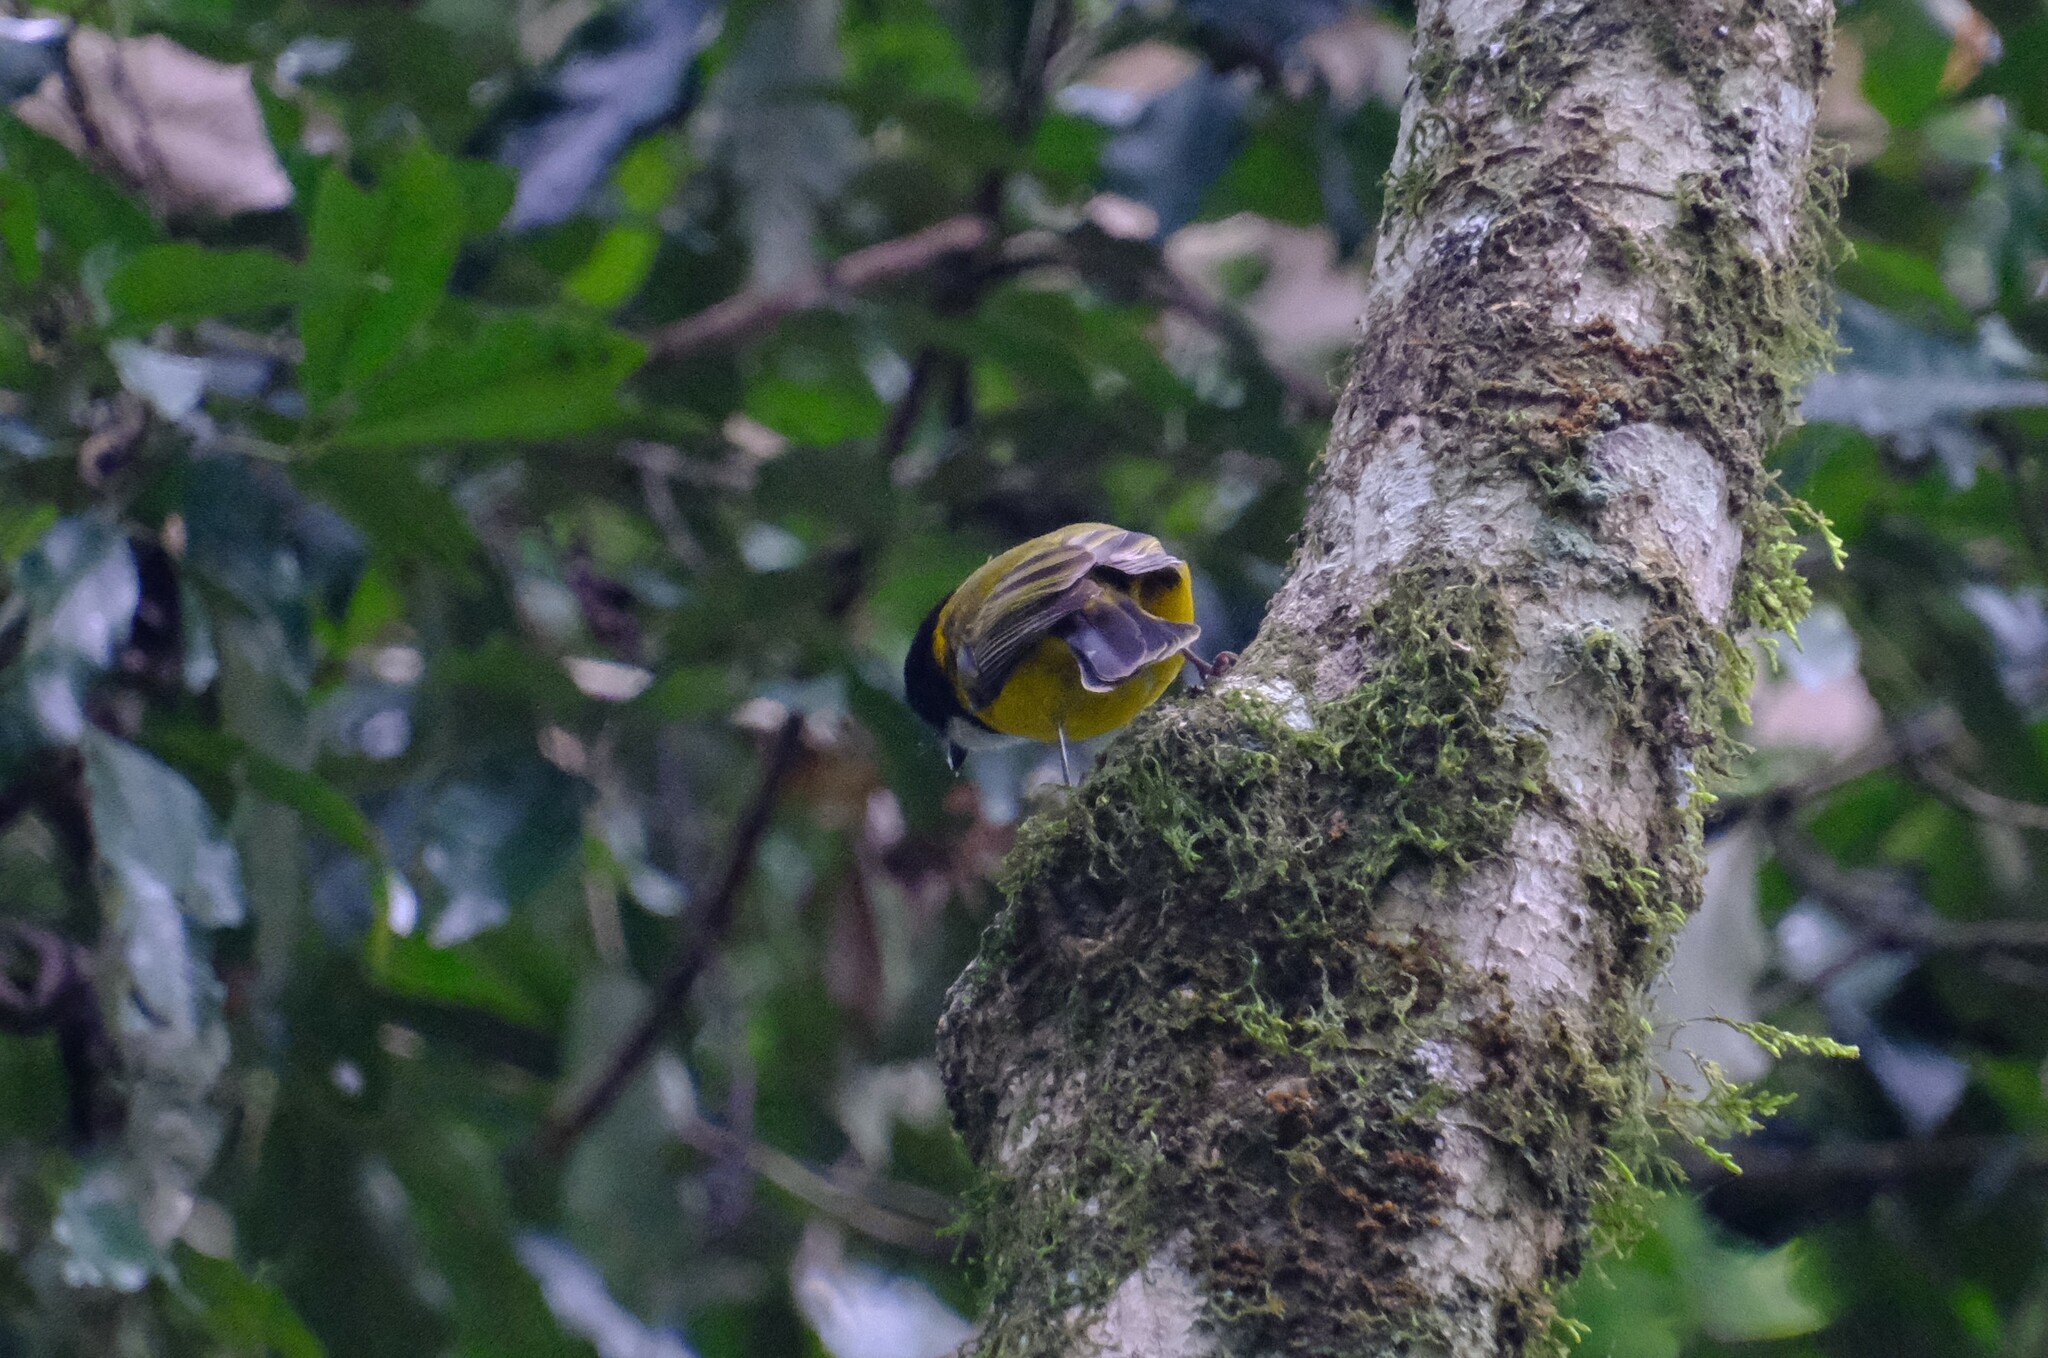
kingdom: Animalia
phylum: Chordata
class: Aves
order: Passeriformes
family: Pachycephalidae
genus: Pachycephala
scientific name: Pachycephala pectoralis
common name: Australian golden whistler
